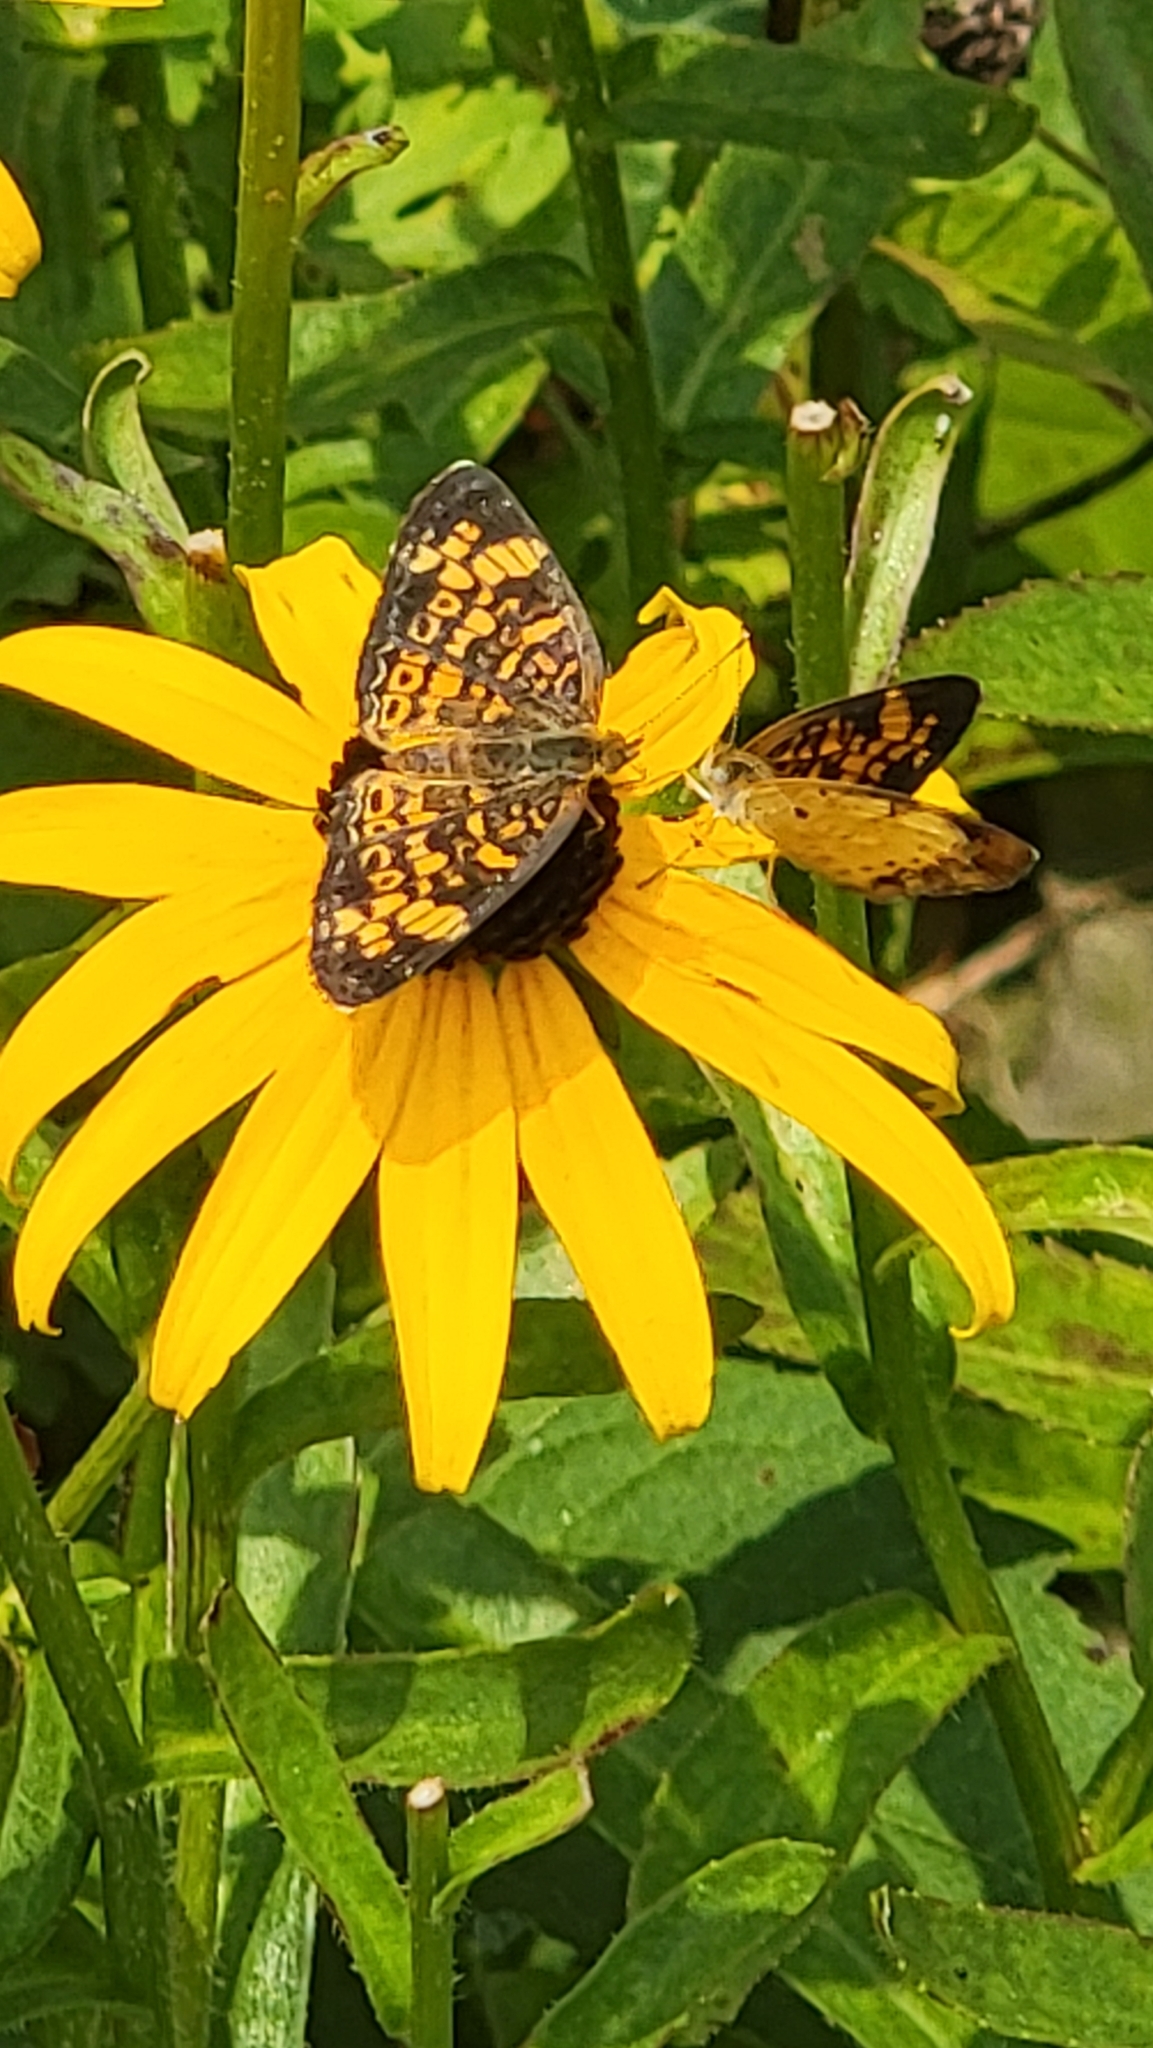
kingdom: Animalia
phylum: Arthropoda
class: Insecta
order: Lepidoptera
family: Nymphalidae
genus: Phyciodes
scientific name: Phyciodes tharos
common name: Pearl crescent
